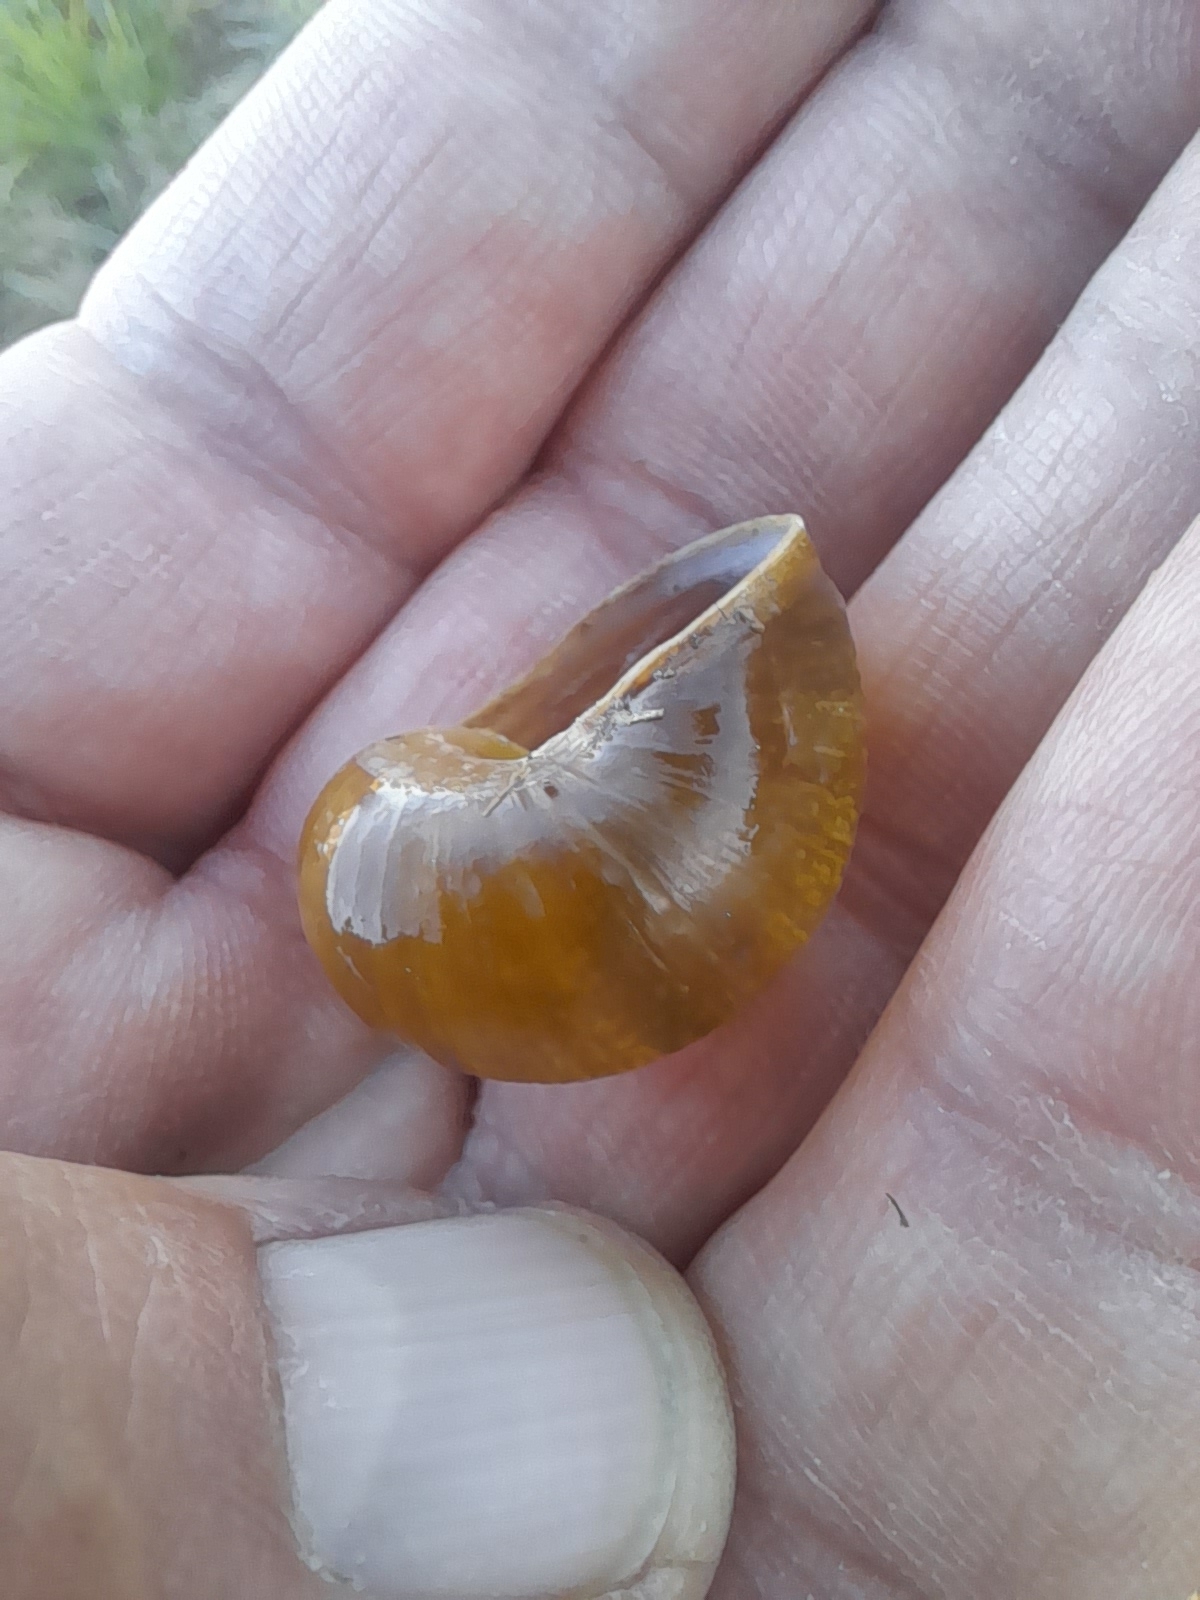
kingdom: Animalia
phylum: Mollusca
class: Gastropoda
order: Stylommatophora
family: Helicidae
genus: Cantareus
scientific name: Cantareus apertus
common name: Green gardensnail
